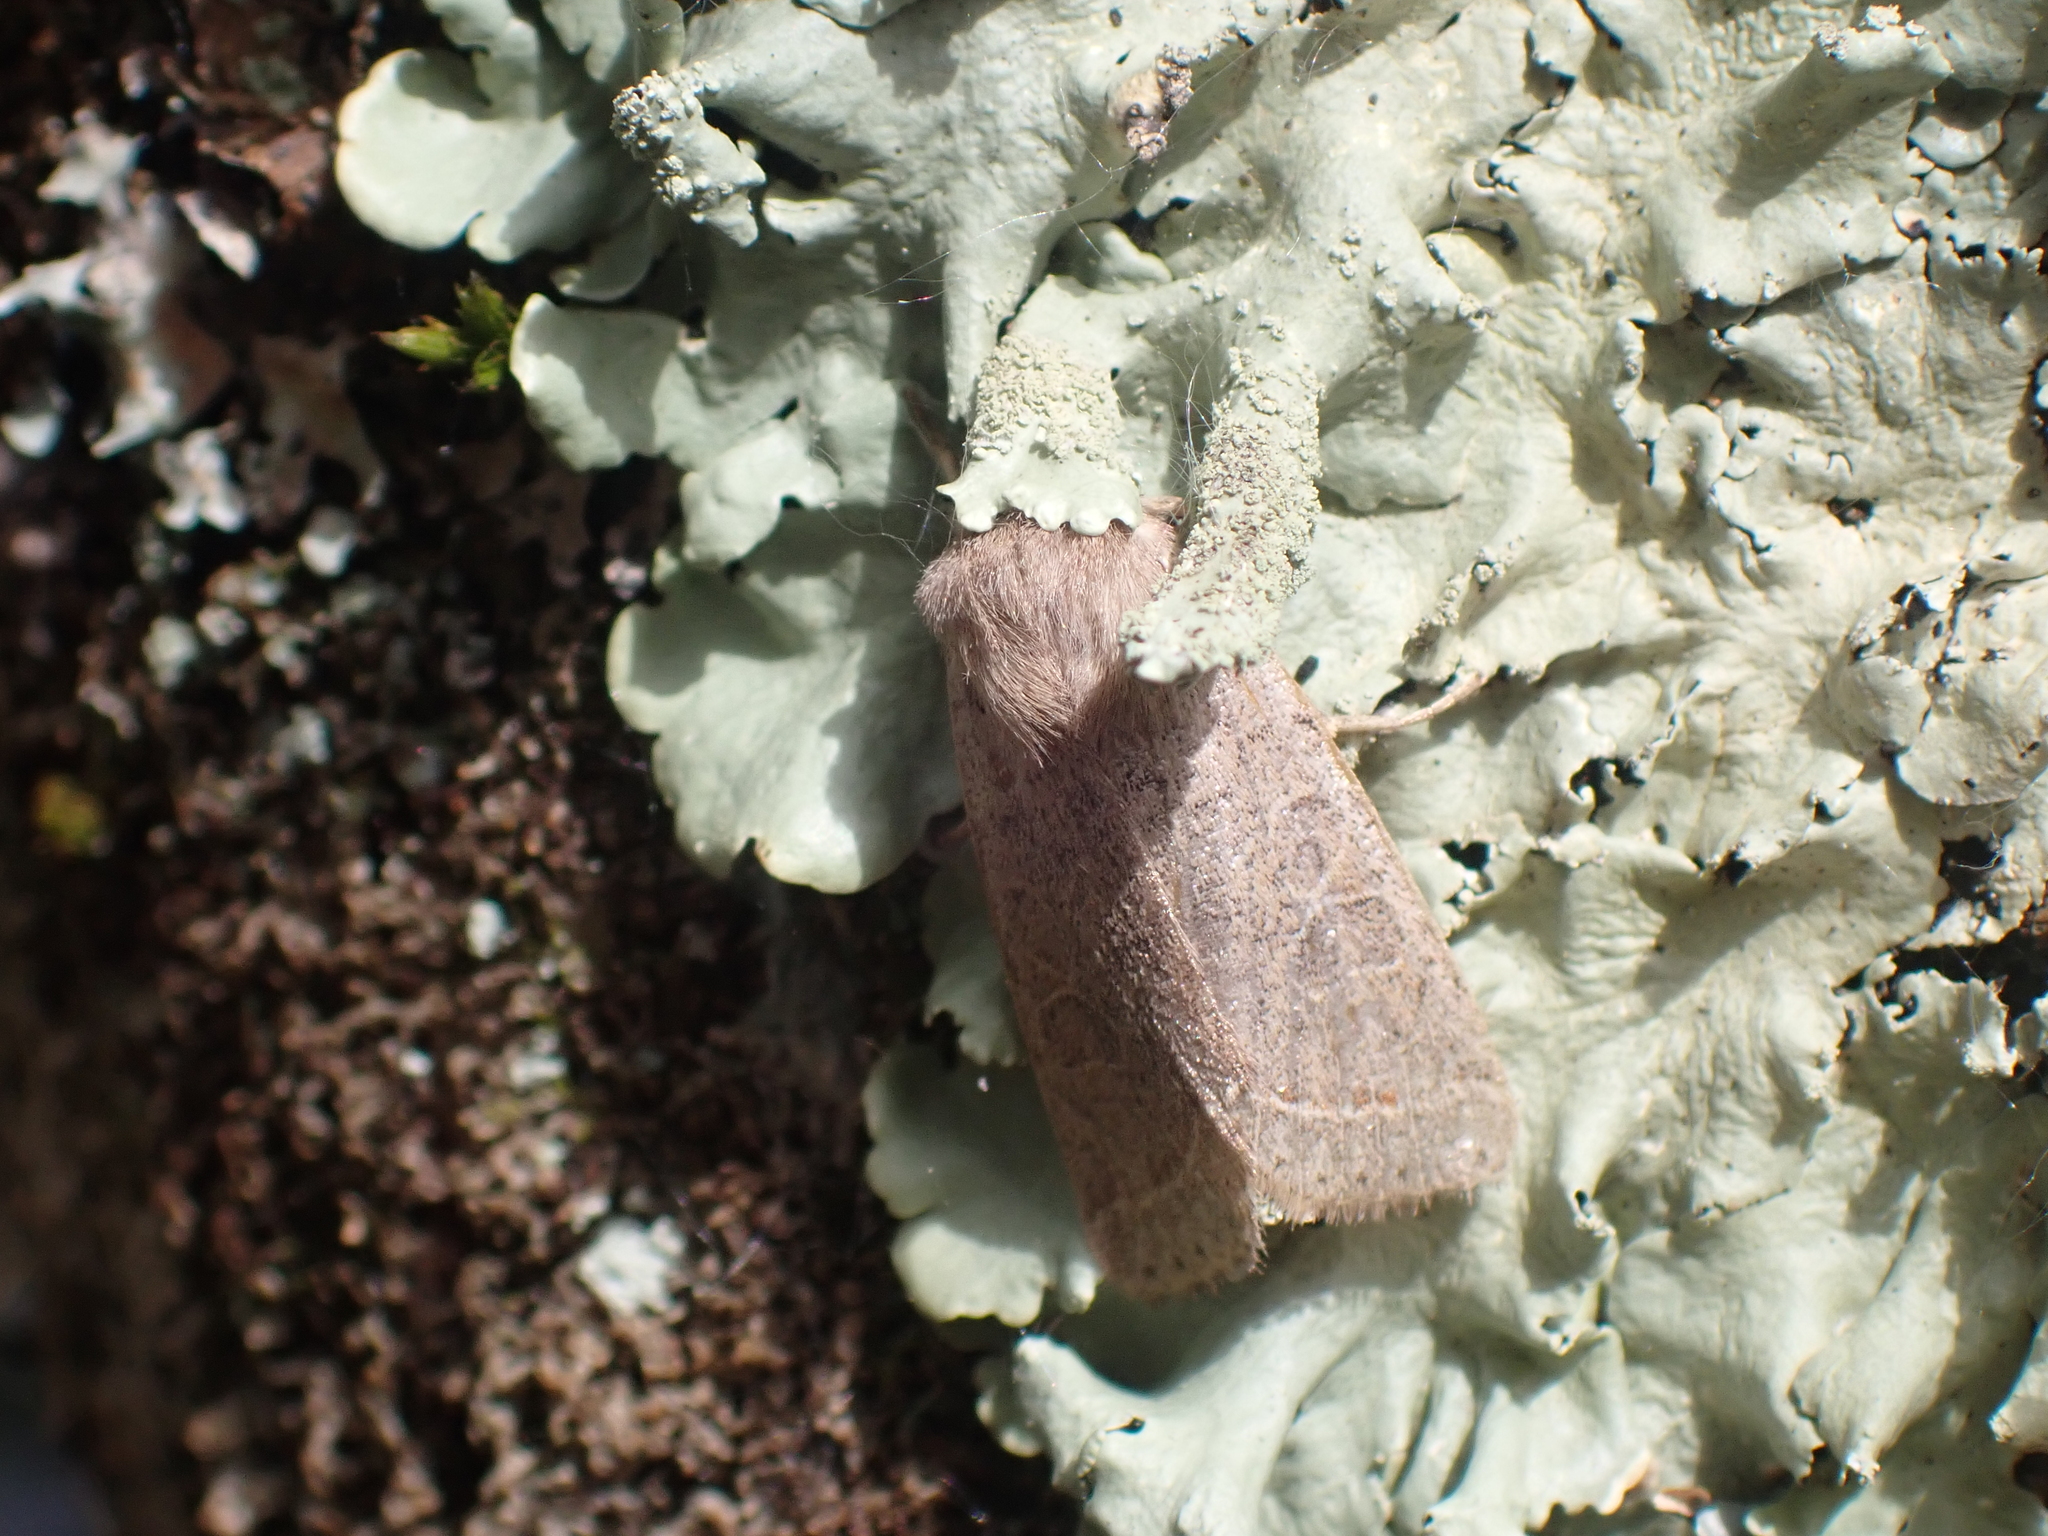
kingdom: Animalia
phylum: Arthropoda
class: Insecta
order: Lepidoptera
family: Noctuidae
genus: Orthosia
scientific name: Orthosia cerasi
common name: Common quaker
